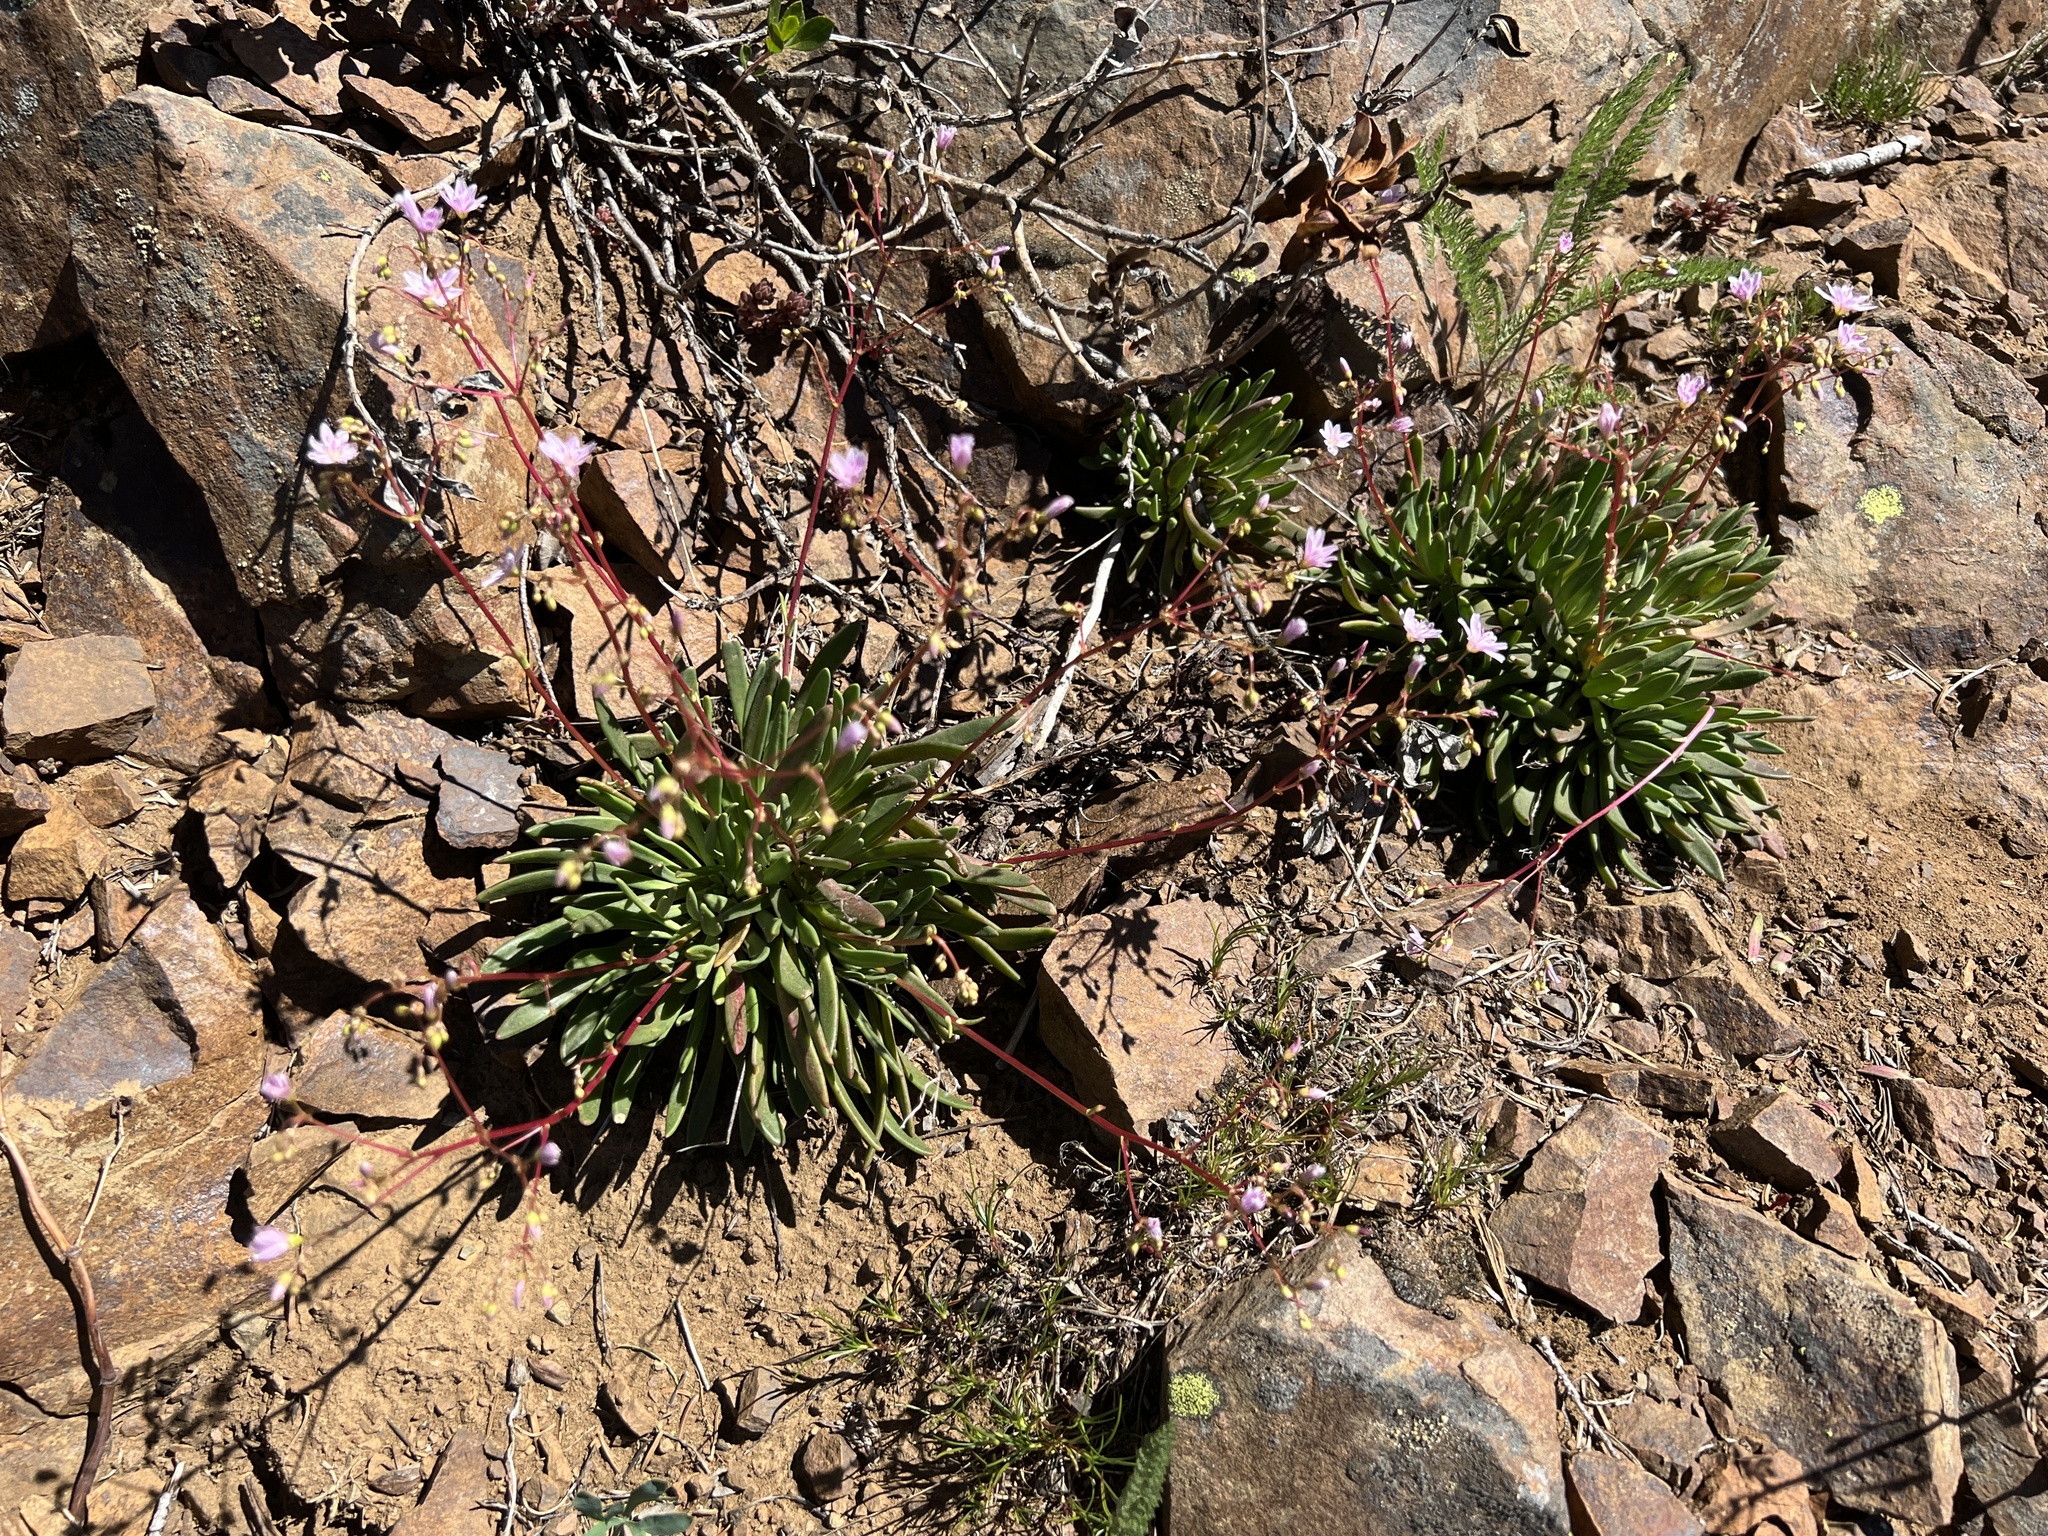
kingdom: Plantae
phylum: Tracheophyta
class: Magnoliopsida
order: Caryophyllales
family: Montiaceae
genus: Lewisia
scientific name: Lewisia columbiana
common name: Columbia lewisia
